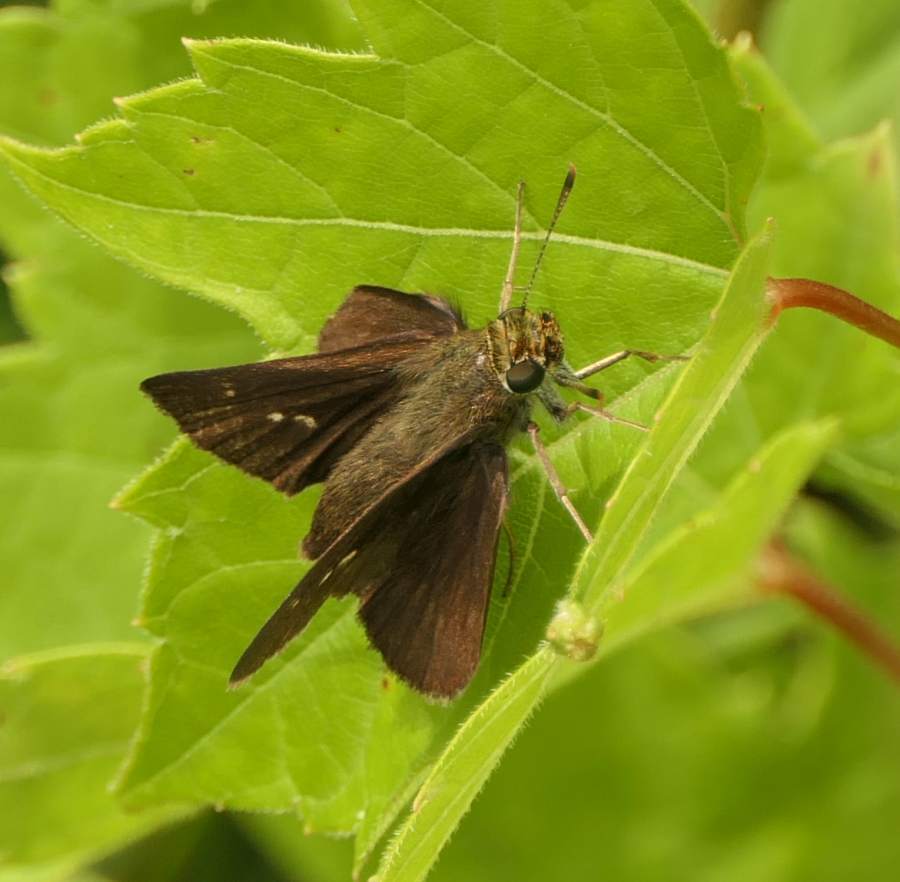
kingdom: Animalia
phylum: Arthropoda
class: Insecta
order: Lepidoptera
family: Hesperiidae
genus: Euphyes
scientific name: Euphyes vestris
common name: Dun skipper
